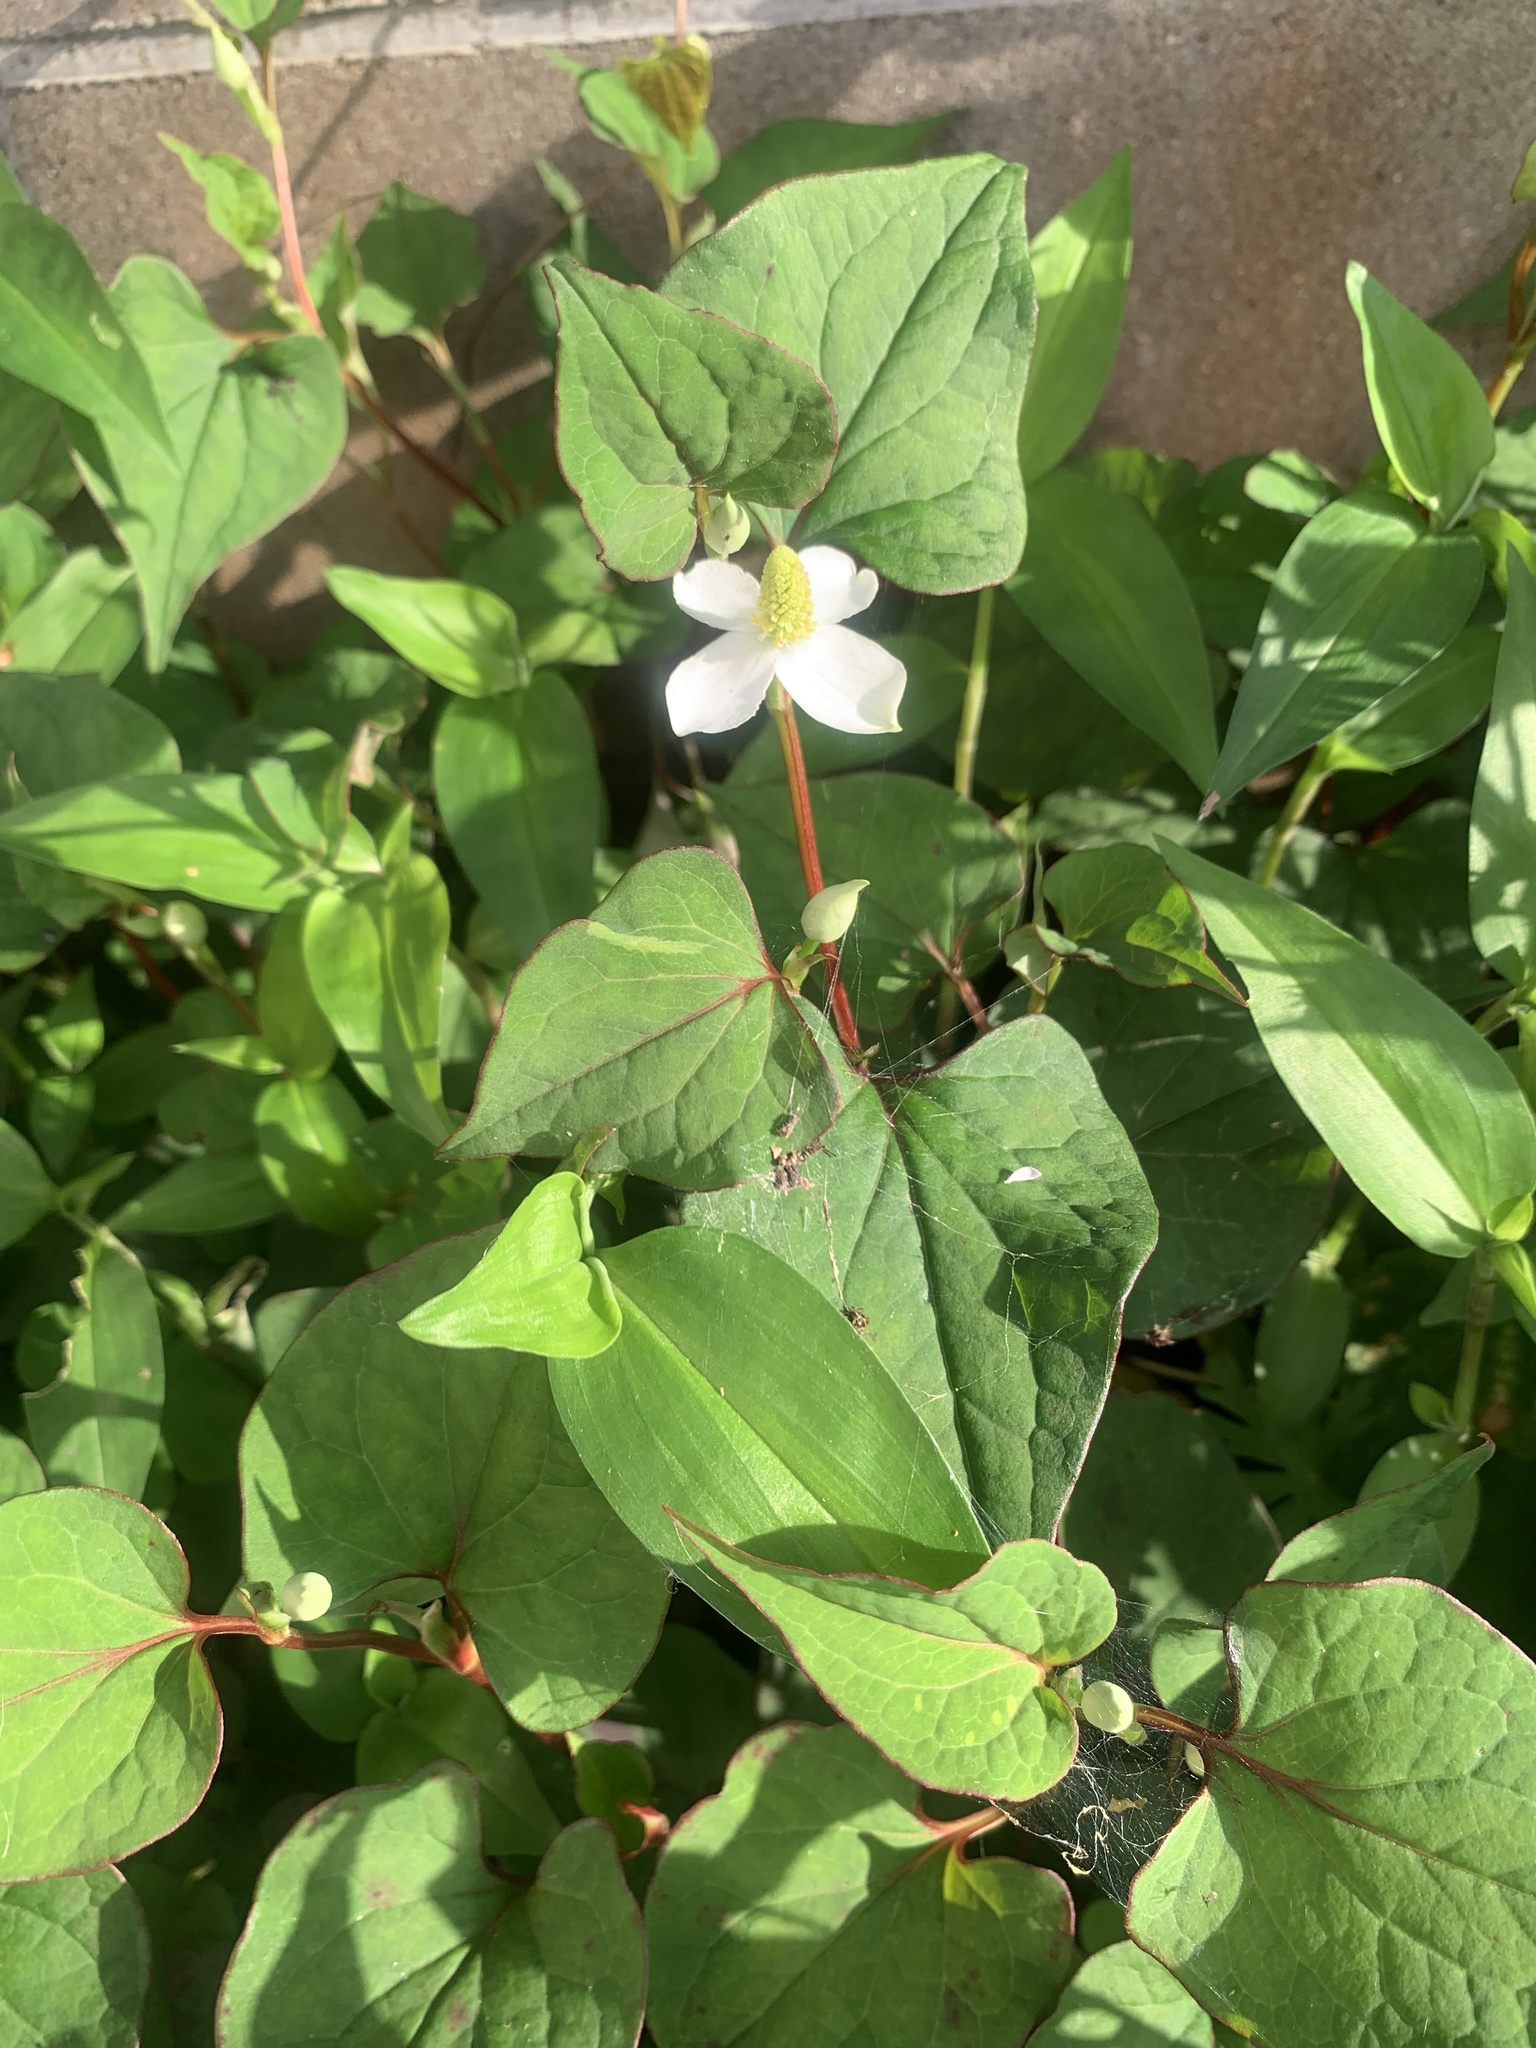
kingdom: Plantae
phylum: Tracheophyta
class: Magnoliopsida
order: Piperales
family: Saururaceae
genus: Houttuynia
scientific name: Houttuynia cordata
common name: Chameleon
